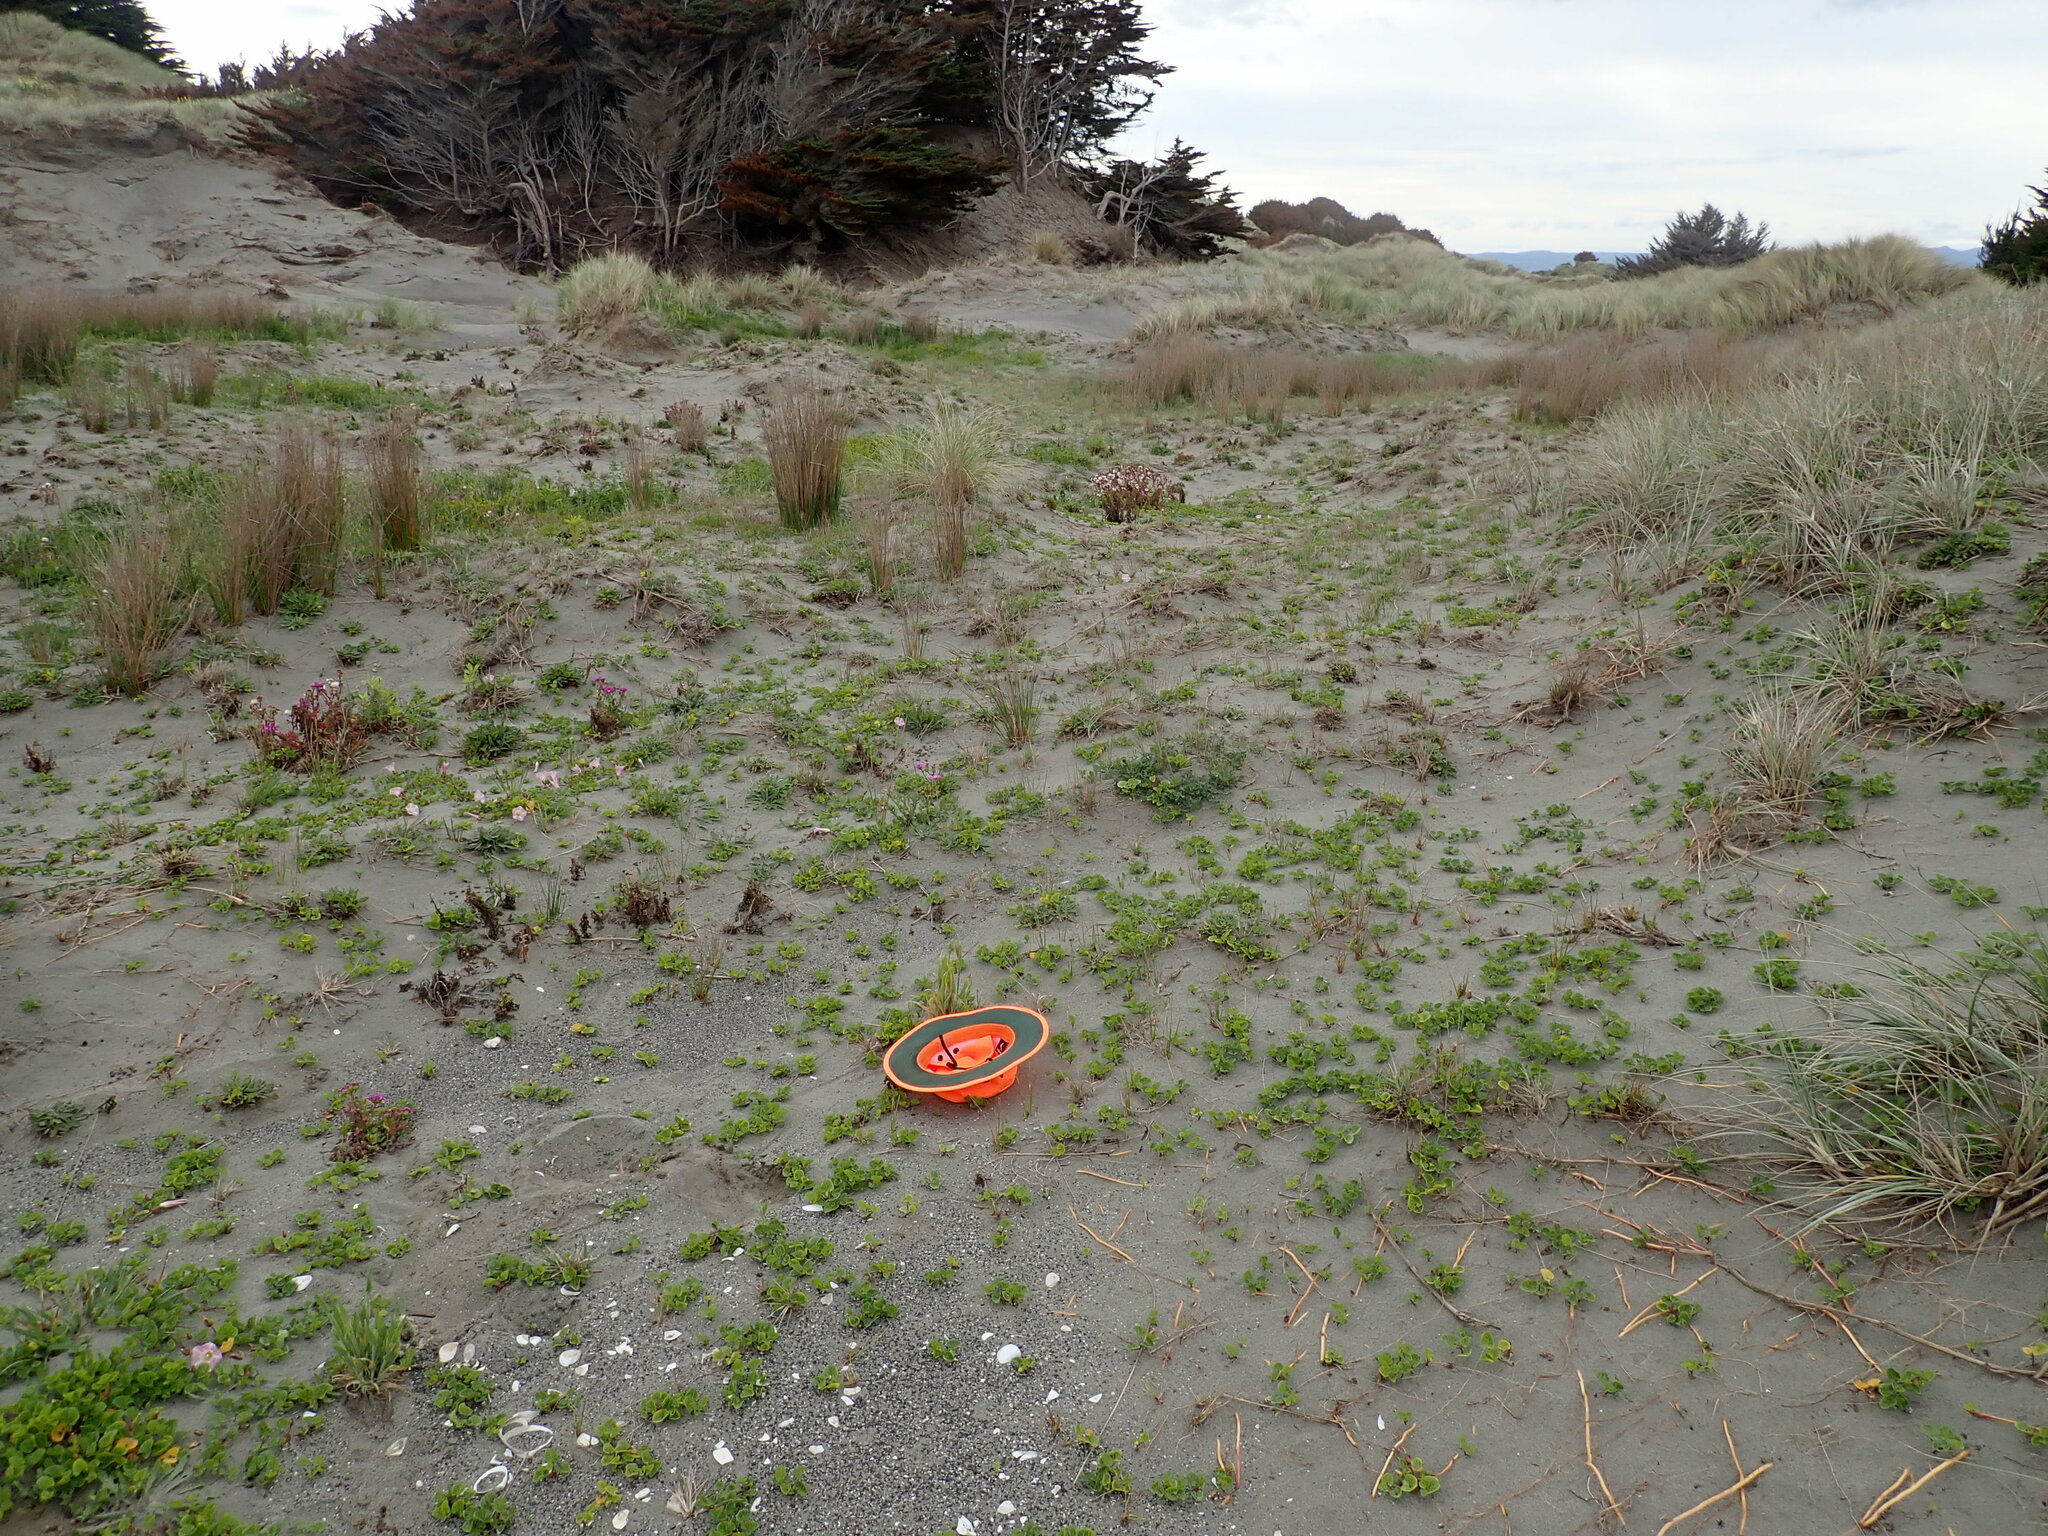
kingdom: Plantae
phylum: Tracheophyta
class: Liliopsida
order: Poales
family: Poaceae
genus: Lagurus
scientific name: Lagurus ovatus
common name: Hare's-tail
